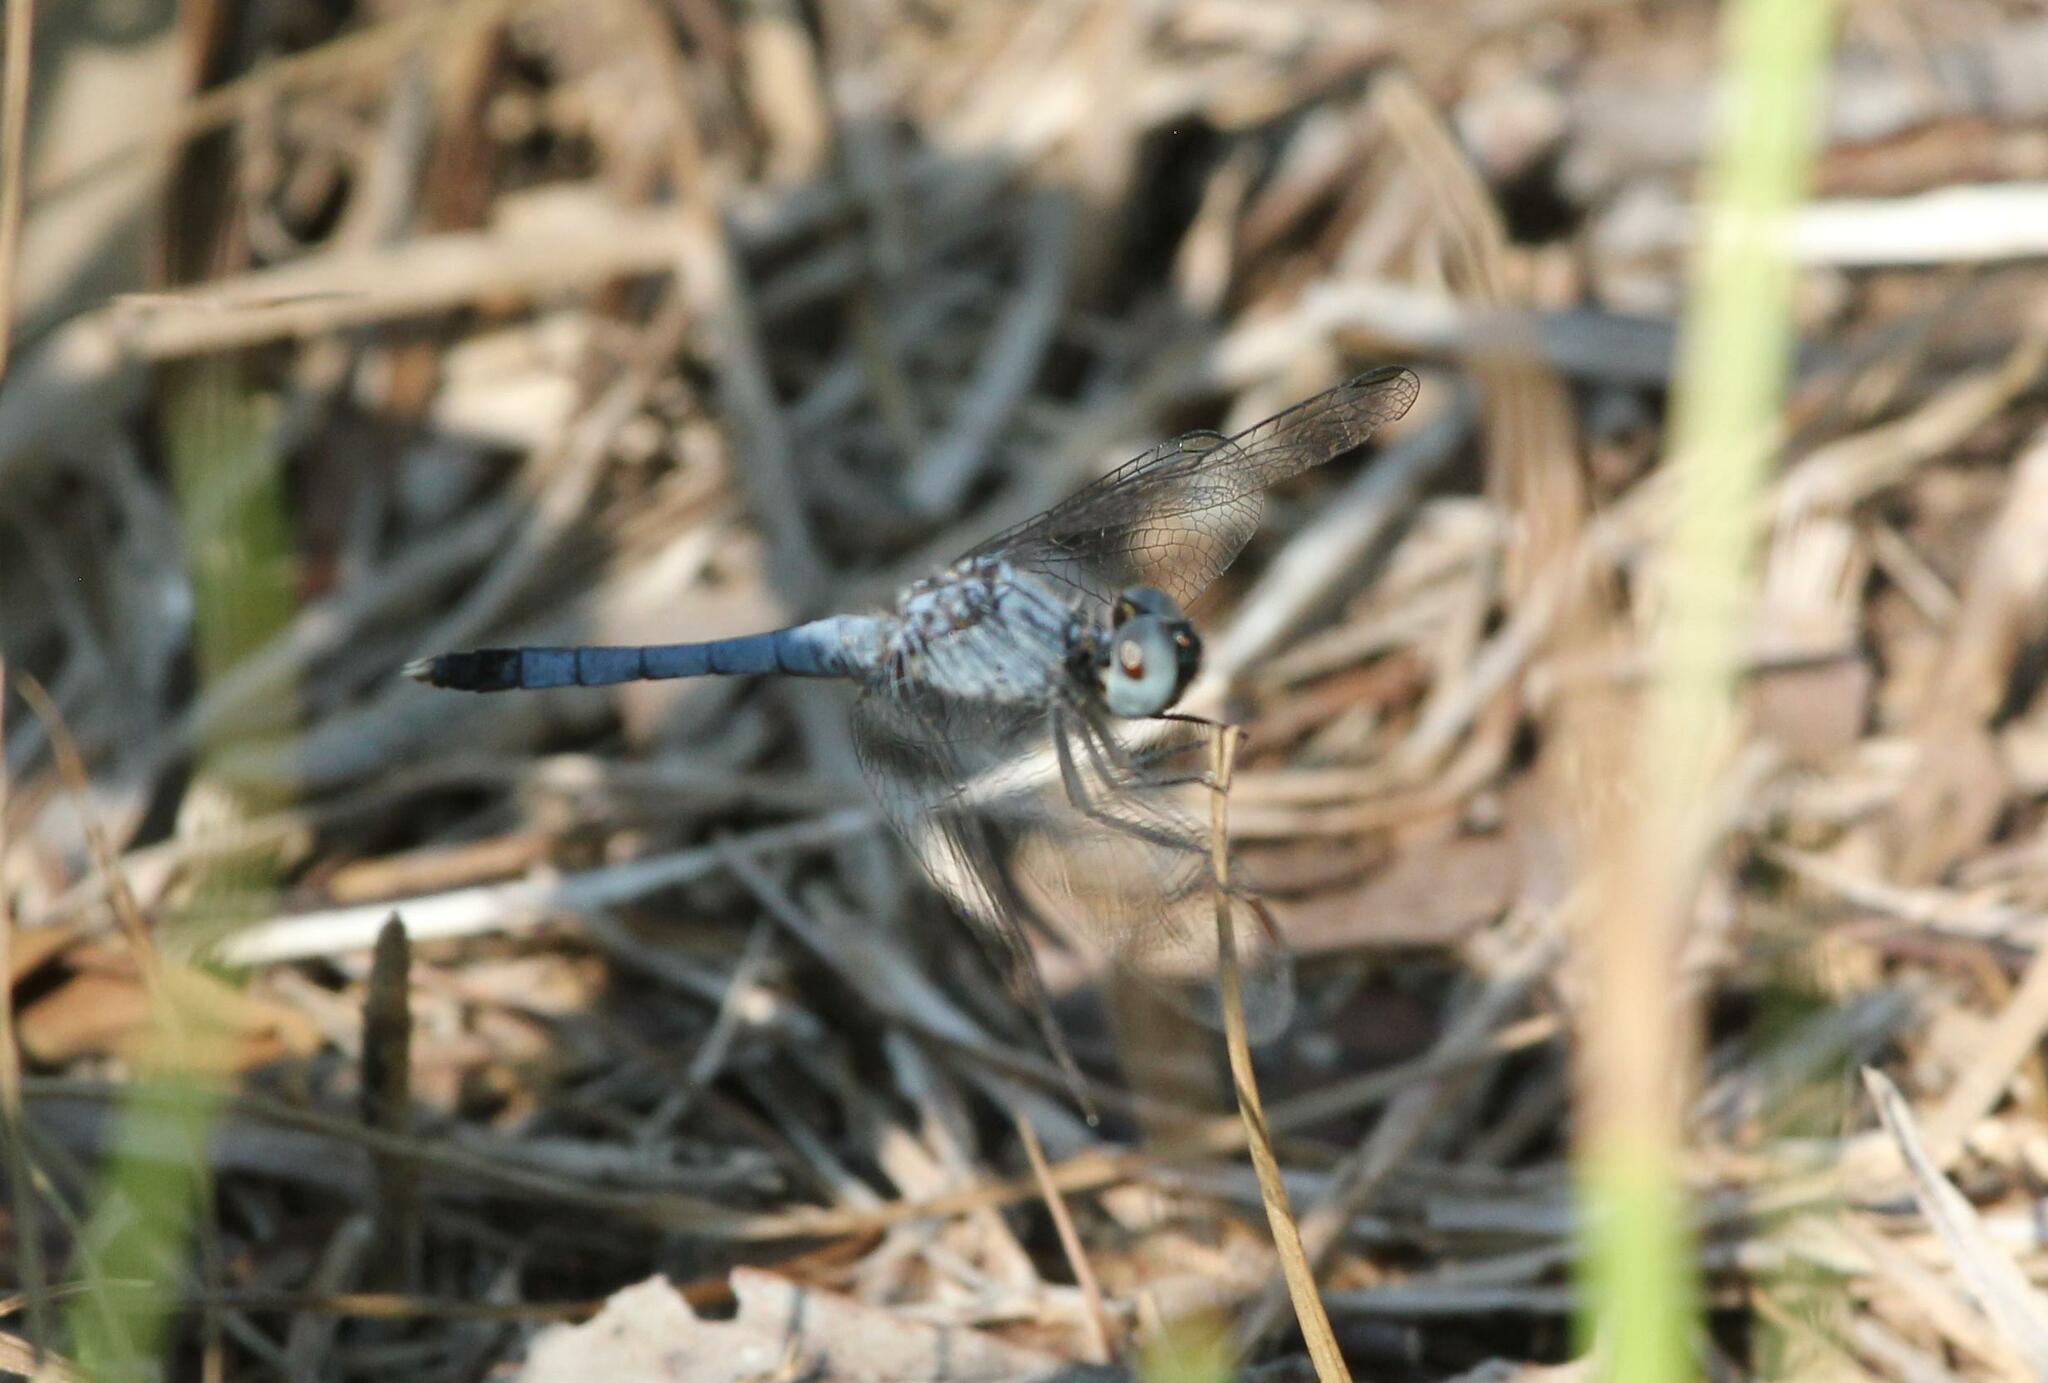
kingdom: Animalia
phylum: Arthropoda
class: Insecta
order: Odonata
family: Libellulidae
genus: Erythrodiplax
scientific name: Erythrodiplax minuscula
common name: Little blue dragonlet
